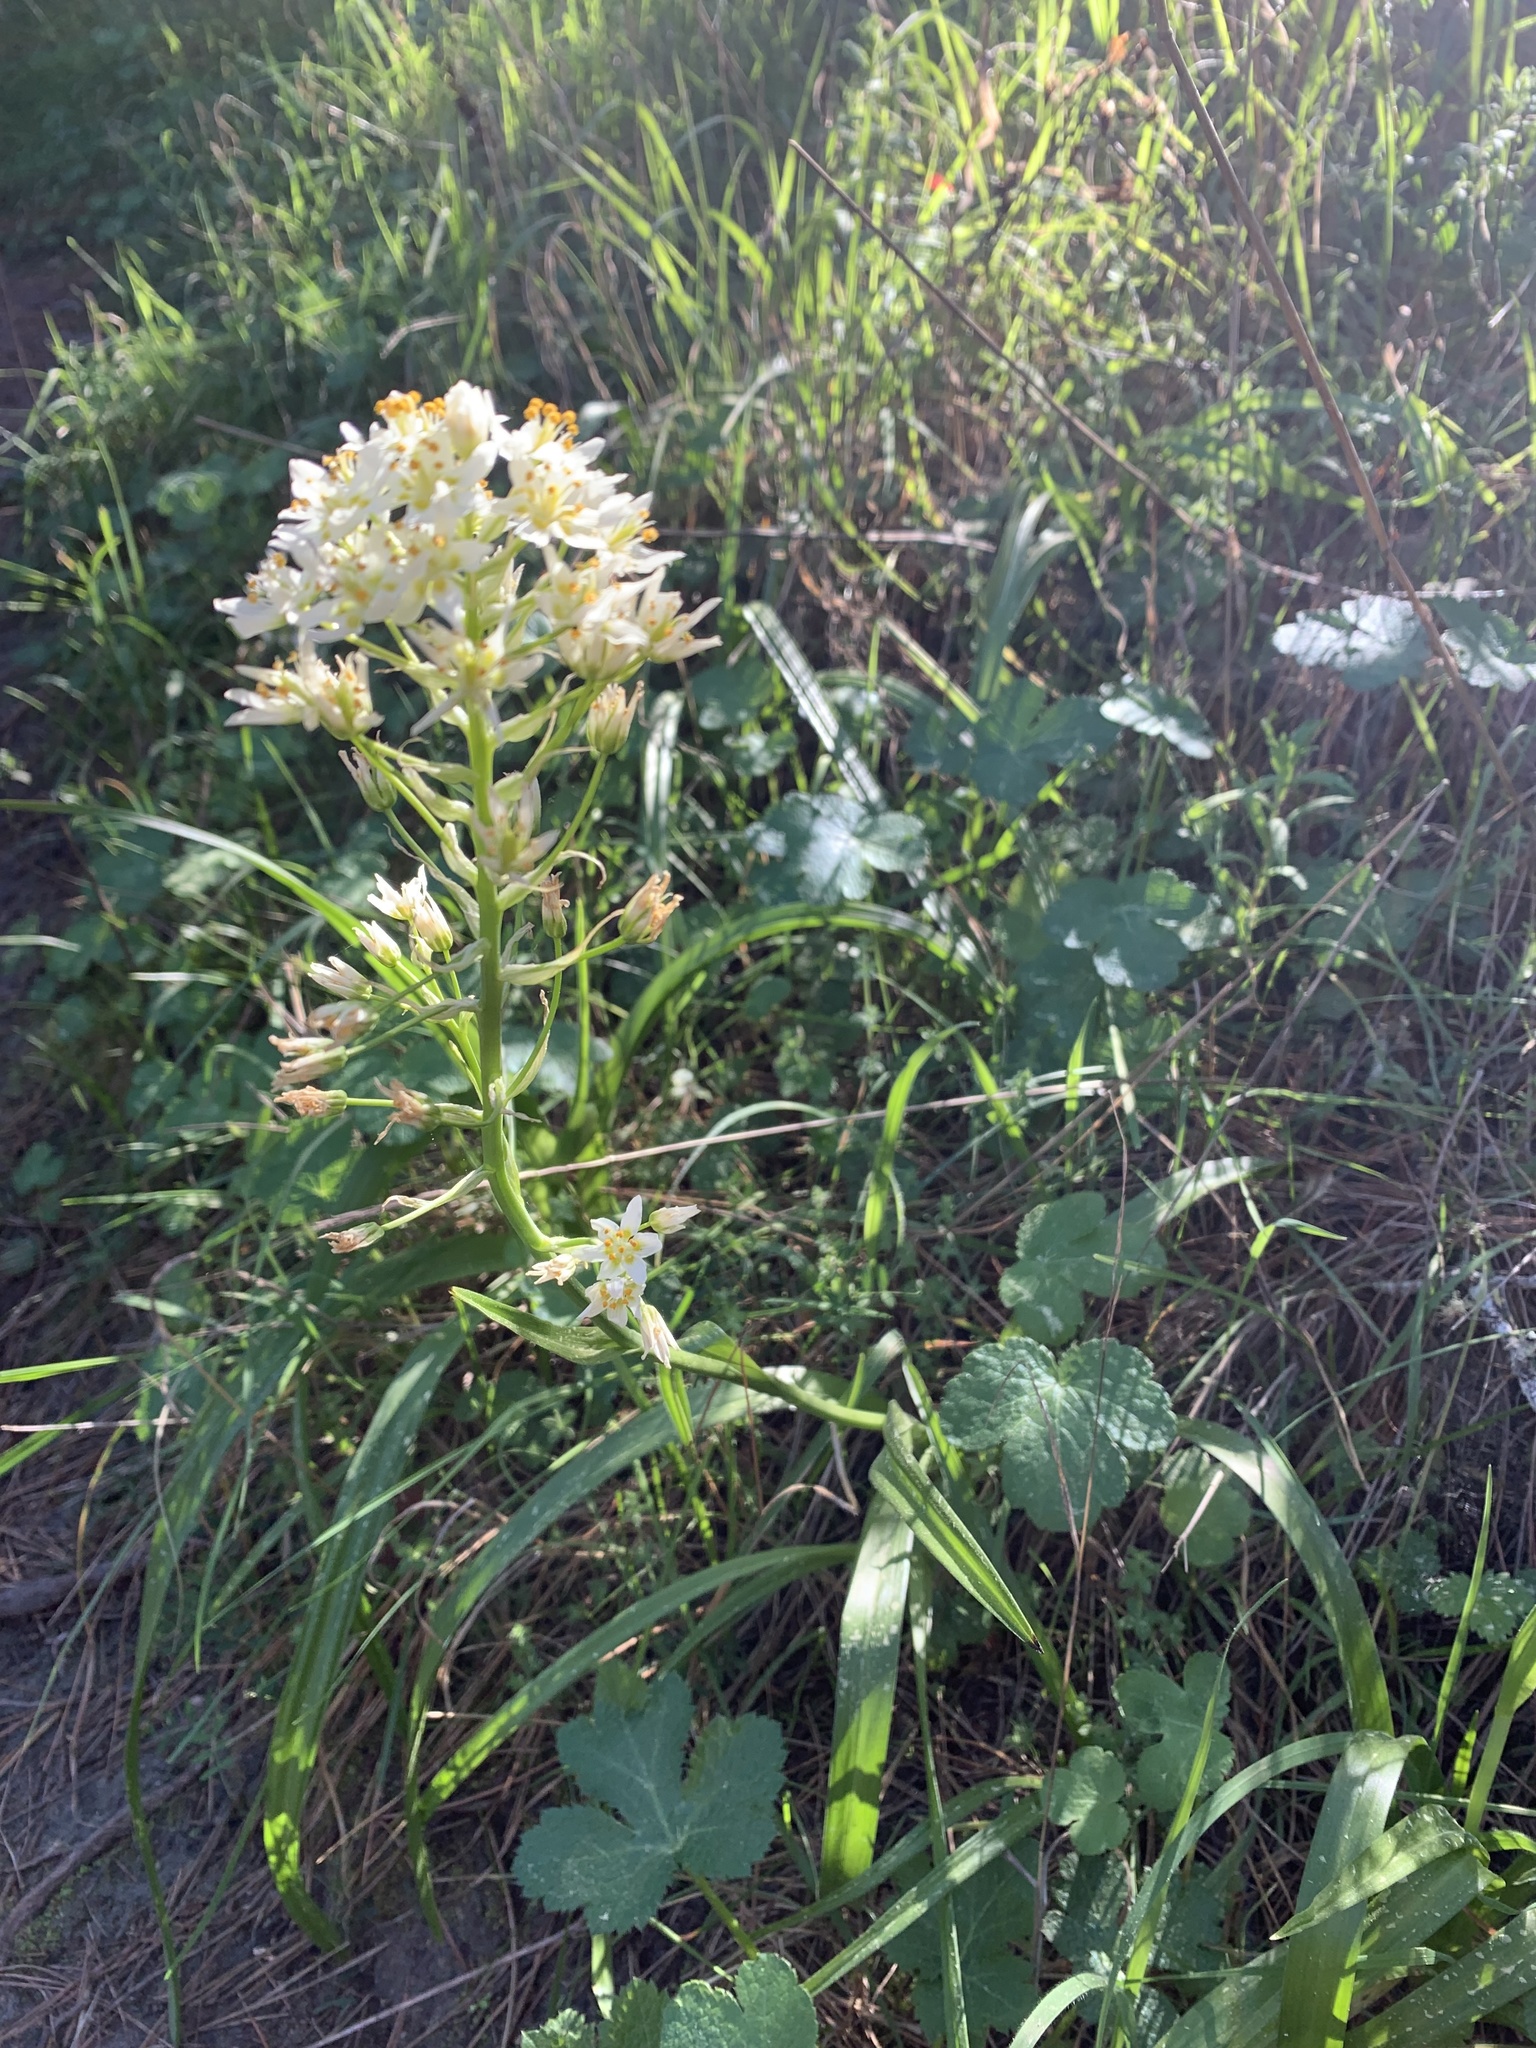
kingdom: Plantae
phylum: Tracheophyta
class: Liliopsida
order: Liliales
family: Melanthiaceae
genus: Toxicoscordion
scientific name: Toxicoscordion fremontii
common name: Fremont's death camas
